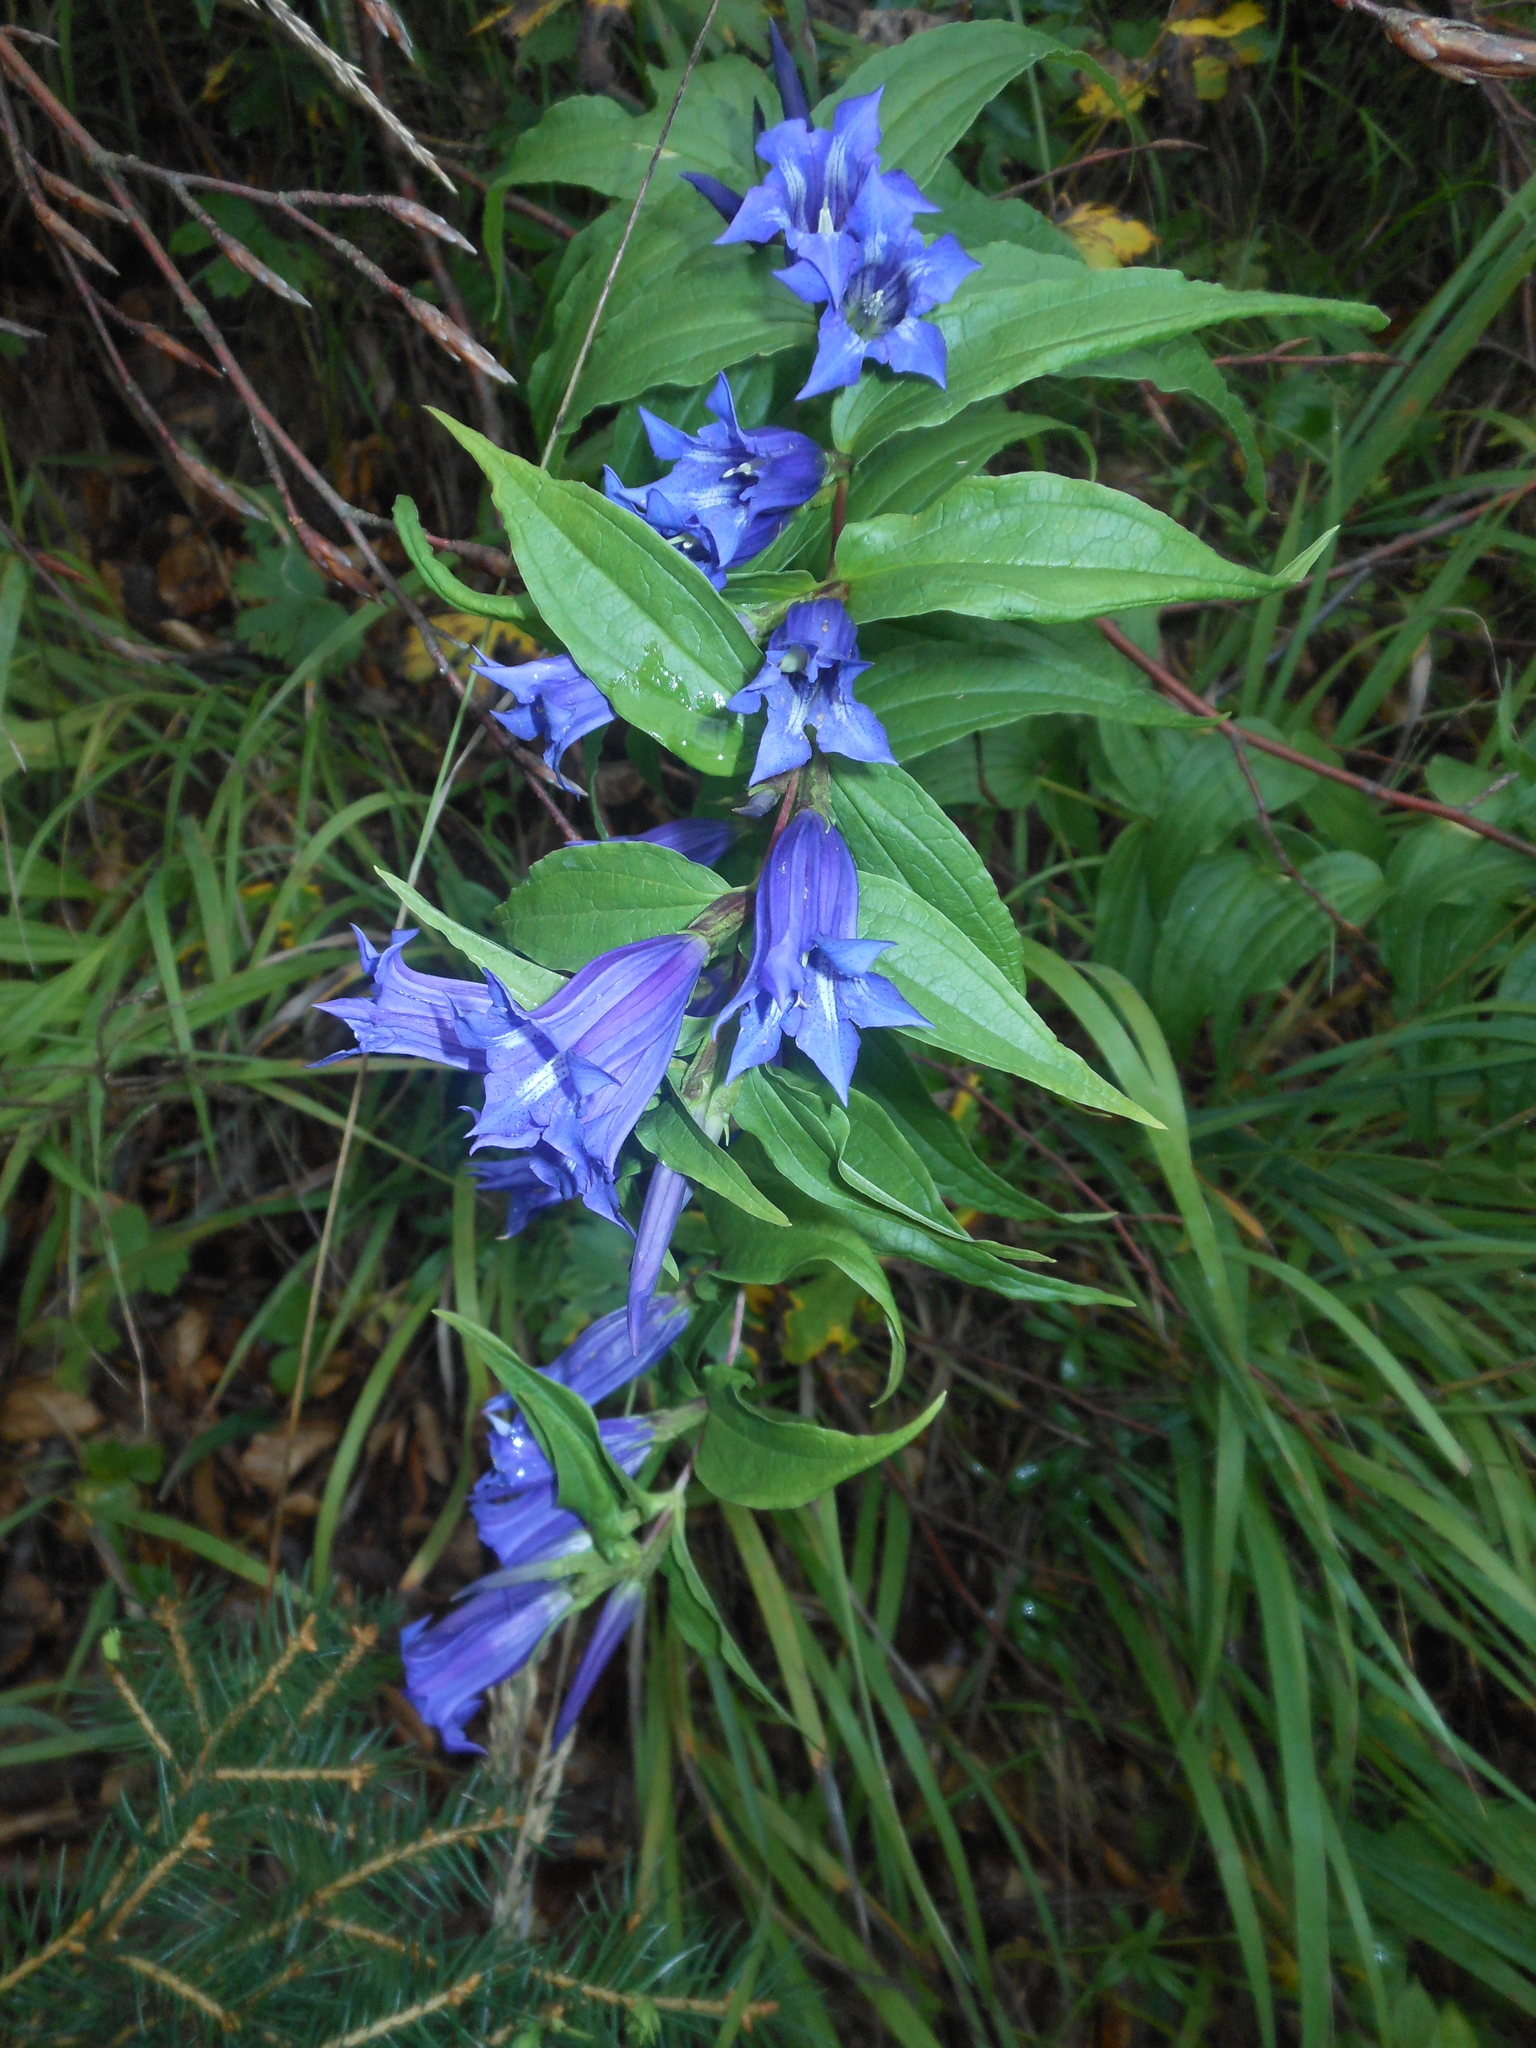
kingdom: Plantae
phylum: Tracheophyta
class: Magnoliopsida
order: Gentianales
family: Gentianaceae
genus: Gentiana
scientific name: Gentiana asclepiadea
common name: Willow gentian
